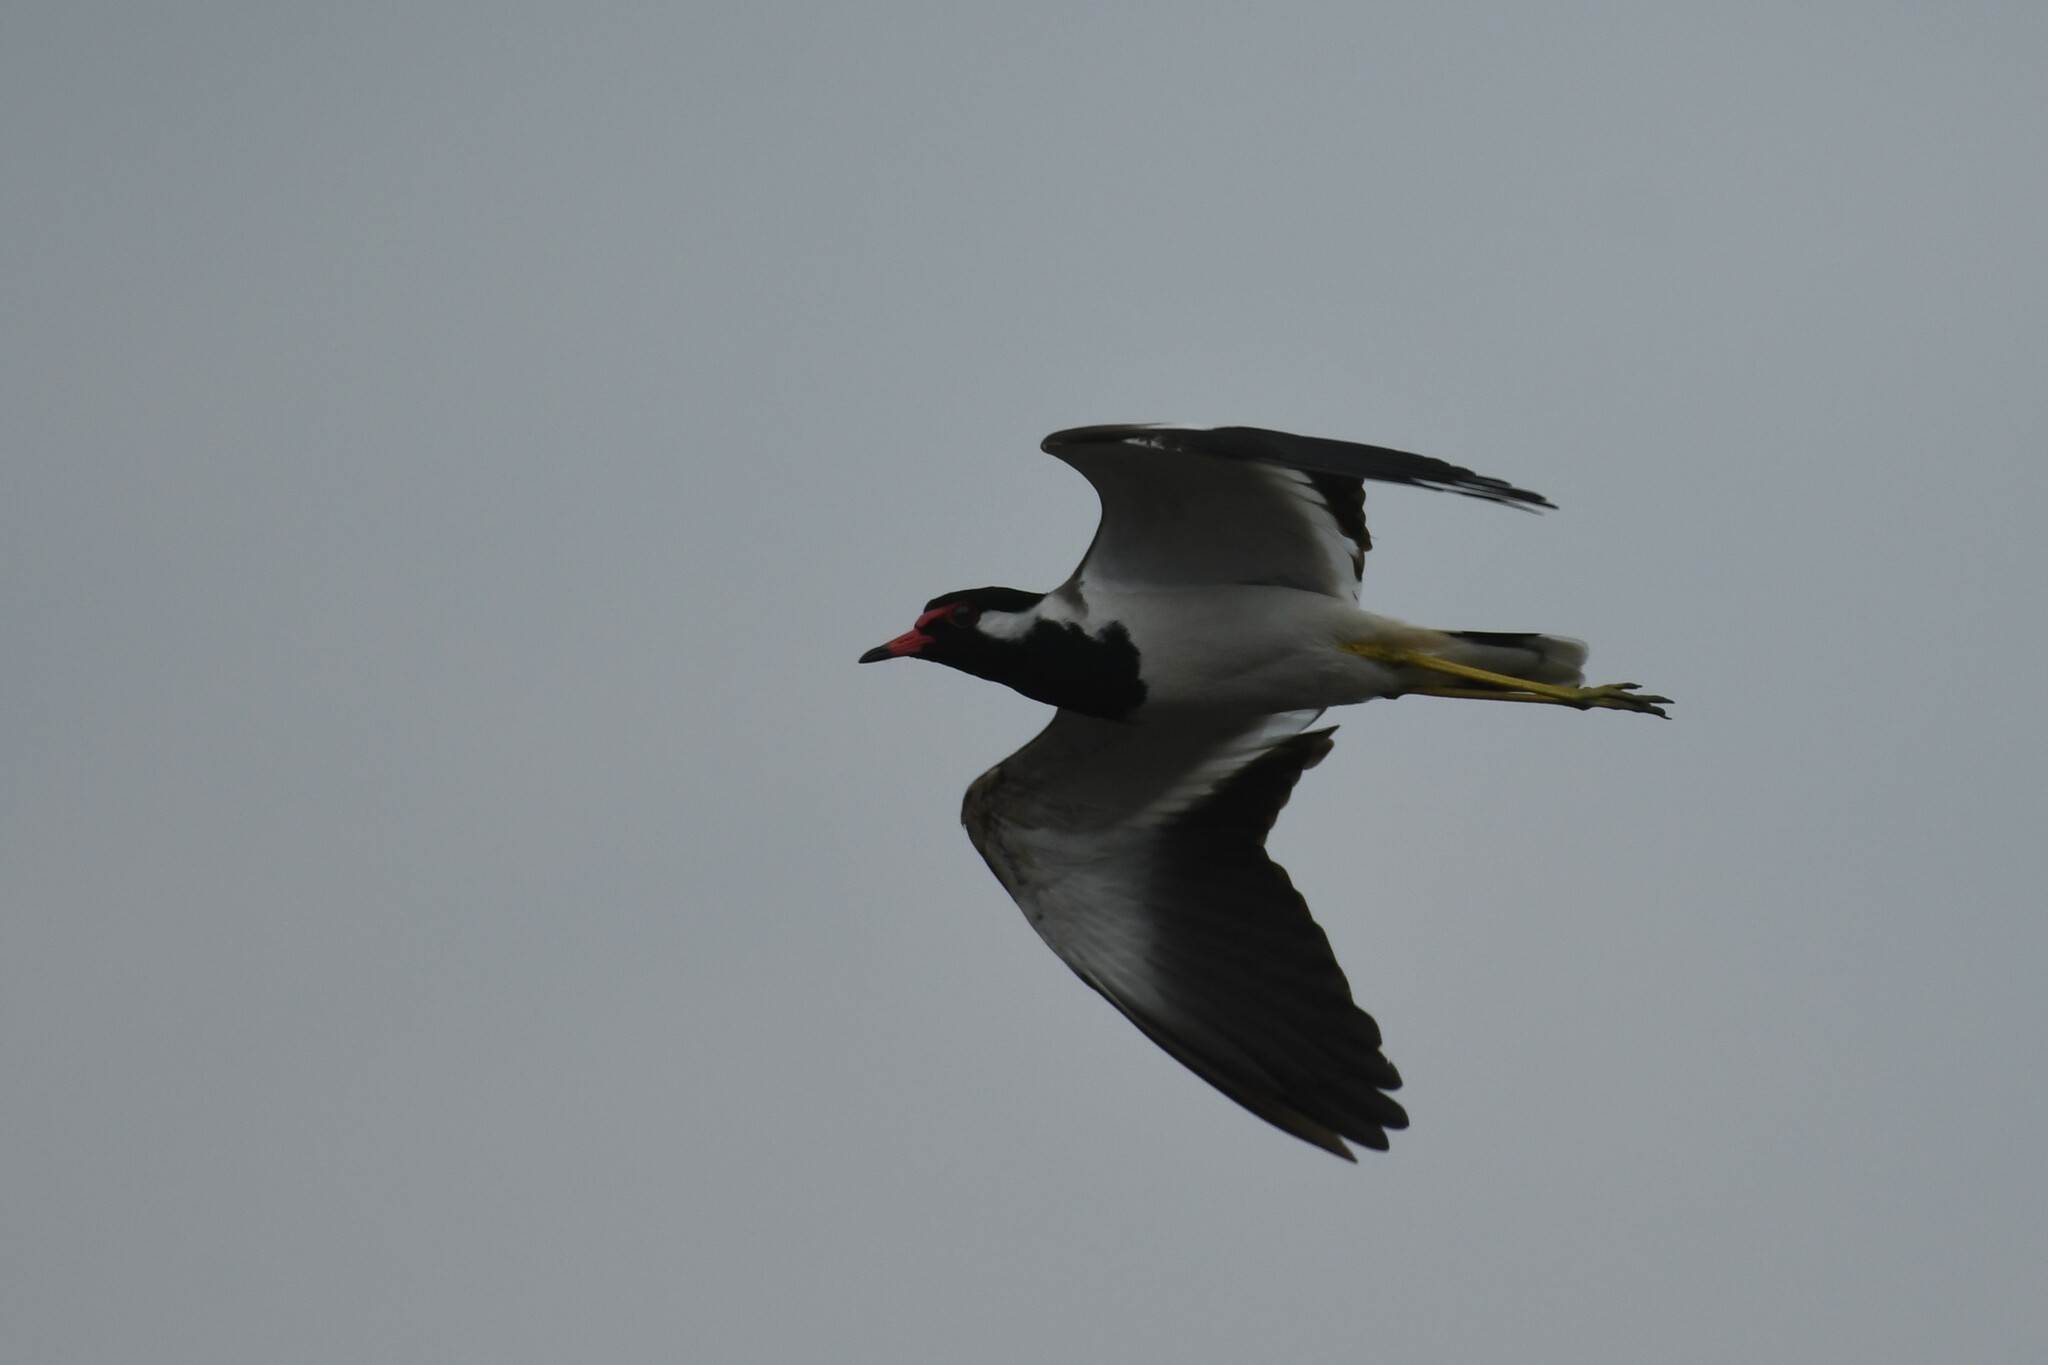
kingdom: Animalia
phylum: Chordata
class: Aves
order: Charadriiformes
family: Charadriidae
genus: Vanellus
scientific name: Vanellus indicus
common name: Red-wattled lapwing
